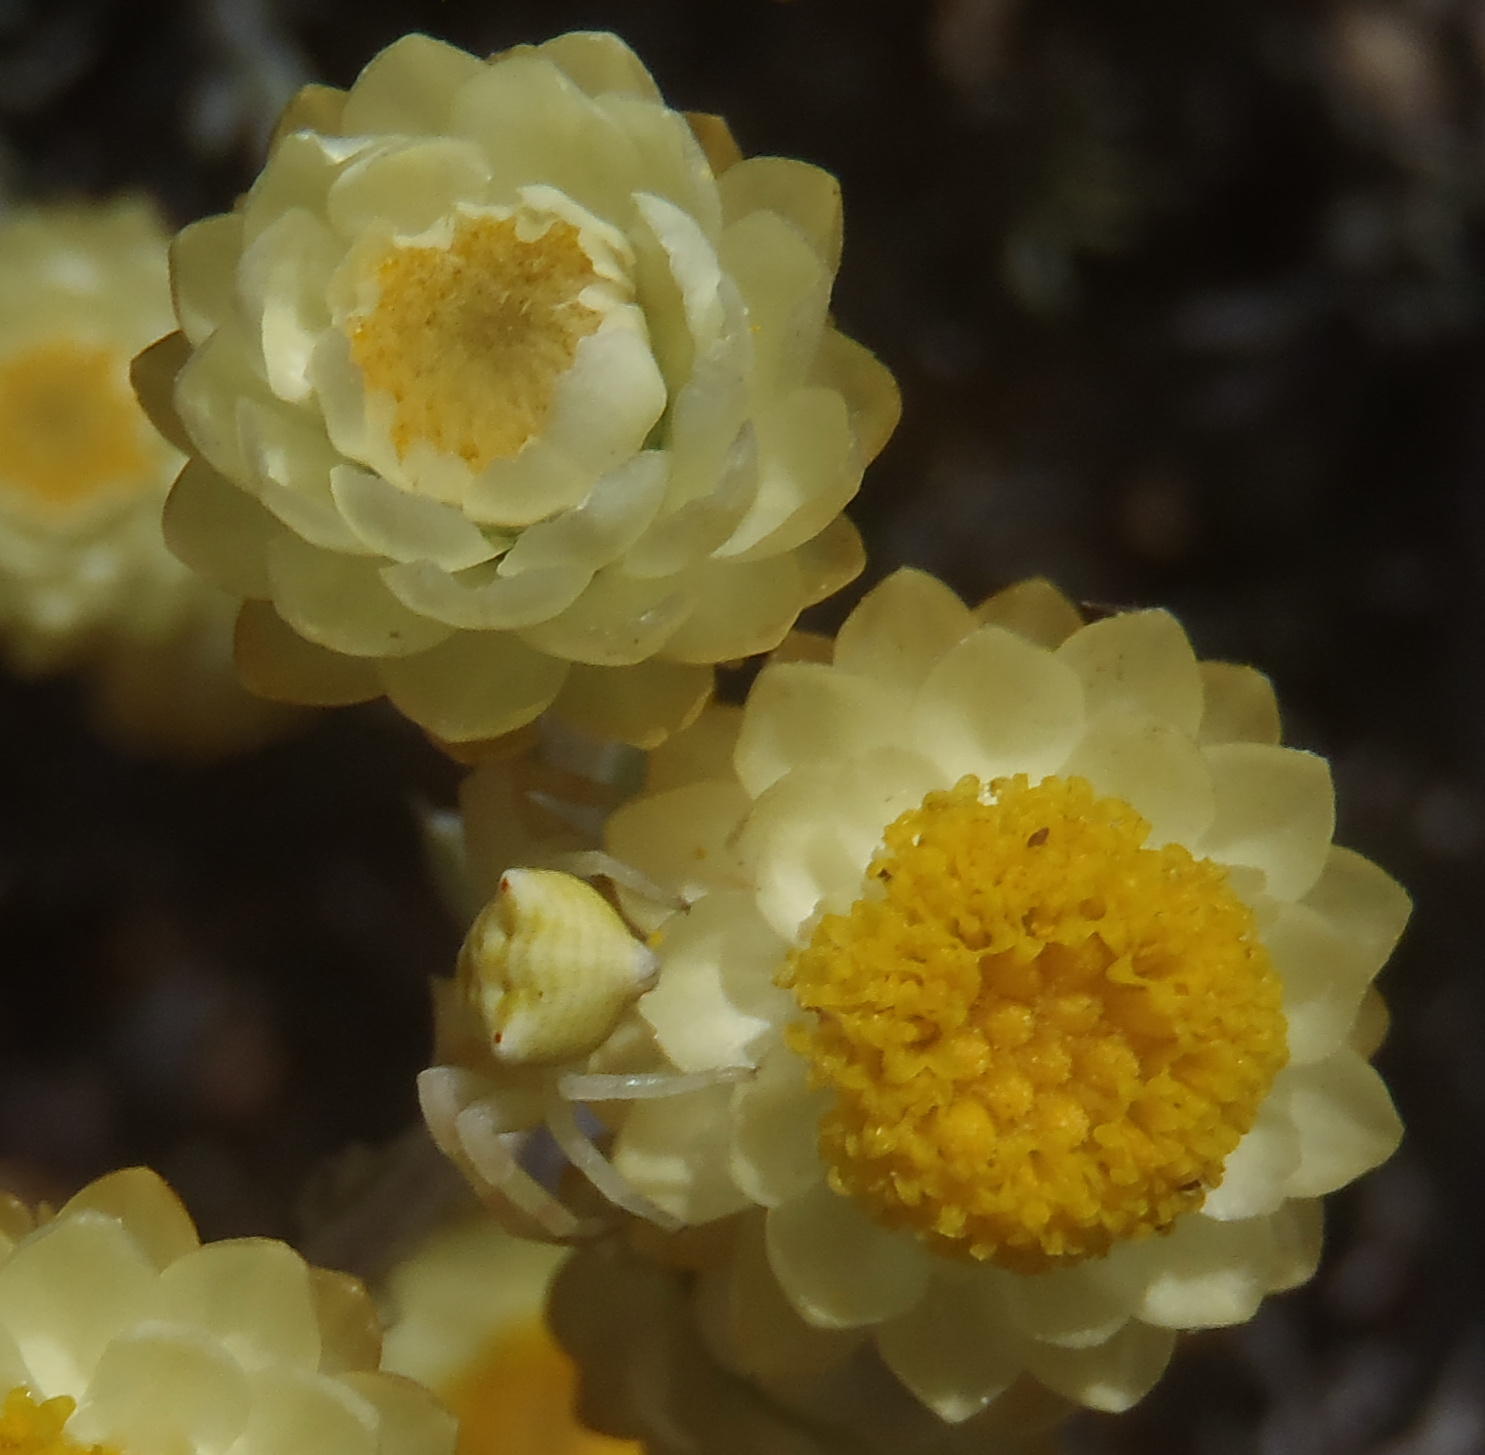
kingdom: Plantae
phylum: Tracheophyta
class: Magnoliopsida
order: Asterales
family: Asteraceae
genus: Achyranthemum
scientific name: Achyranthemum paniculatum
